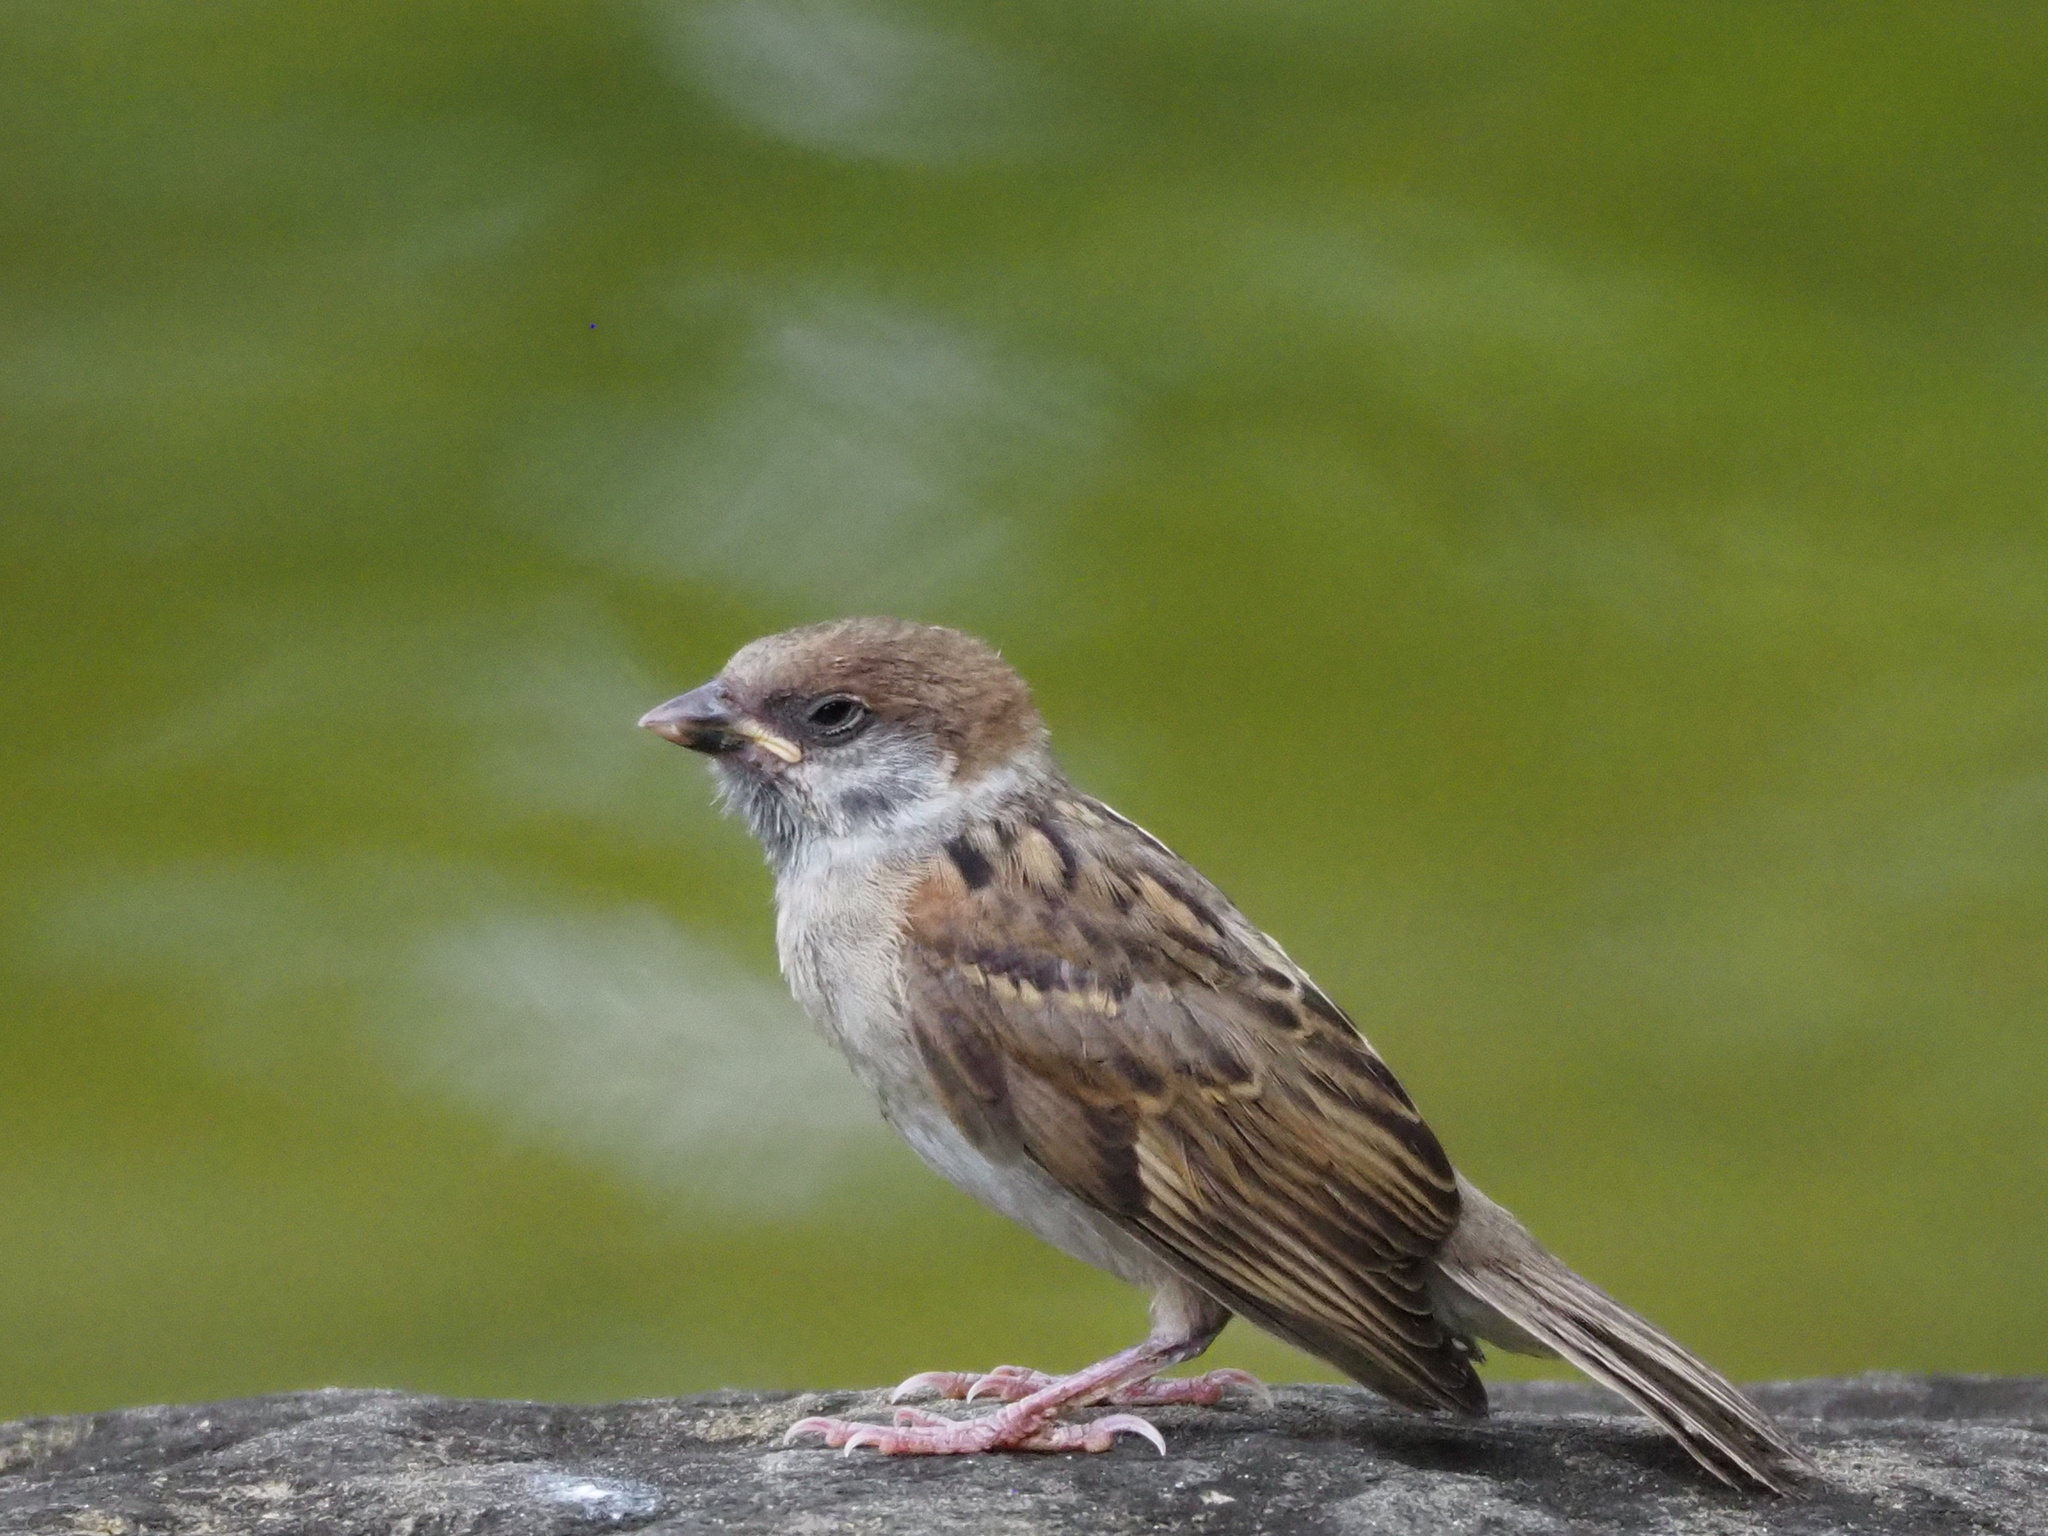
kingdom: Animalia
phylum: Chordata
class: Aves
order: Passeriformes
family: Passeridae
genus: Passer
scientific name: Passer montanus
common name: Eurasian tree sparrow
